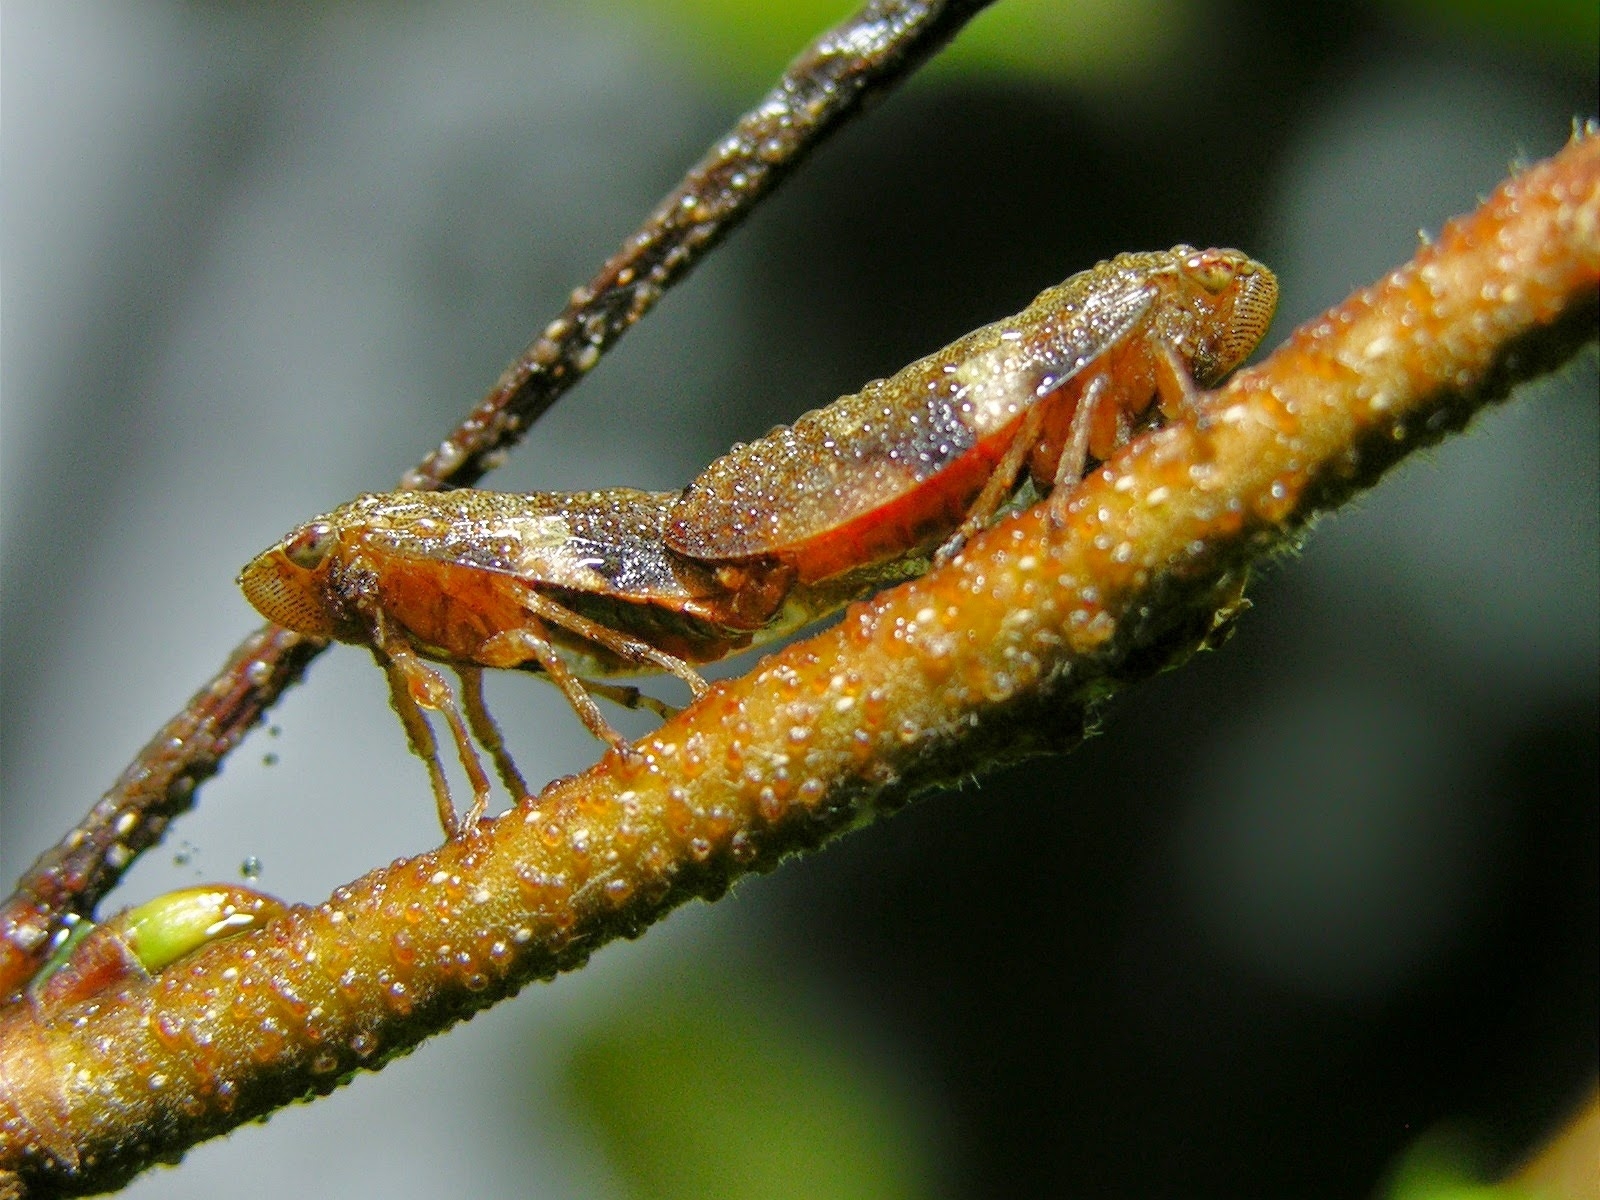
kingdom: Animalia
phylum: Arthropoda
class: Insecta
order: Hemiptera
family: Aphrophoridae
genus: Aphrophora
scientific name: Aphrophora alni
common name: European alder spittlebug
